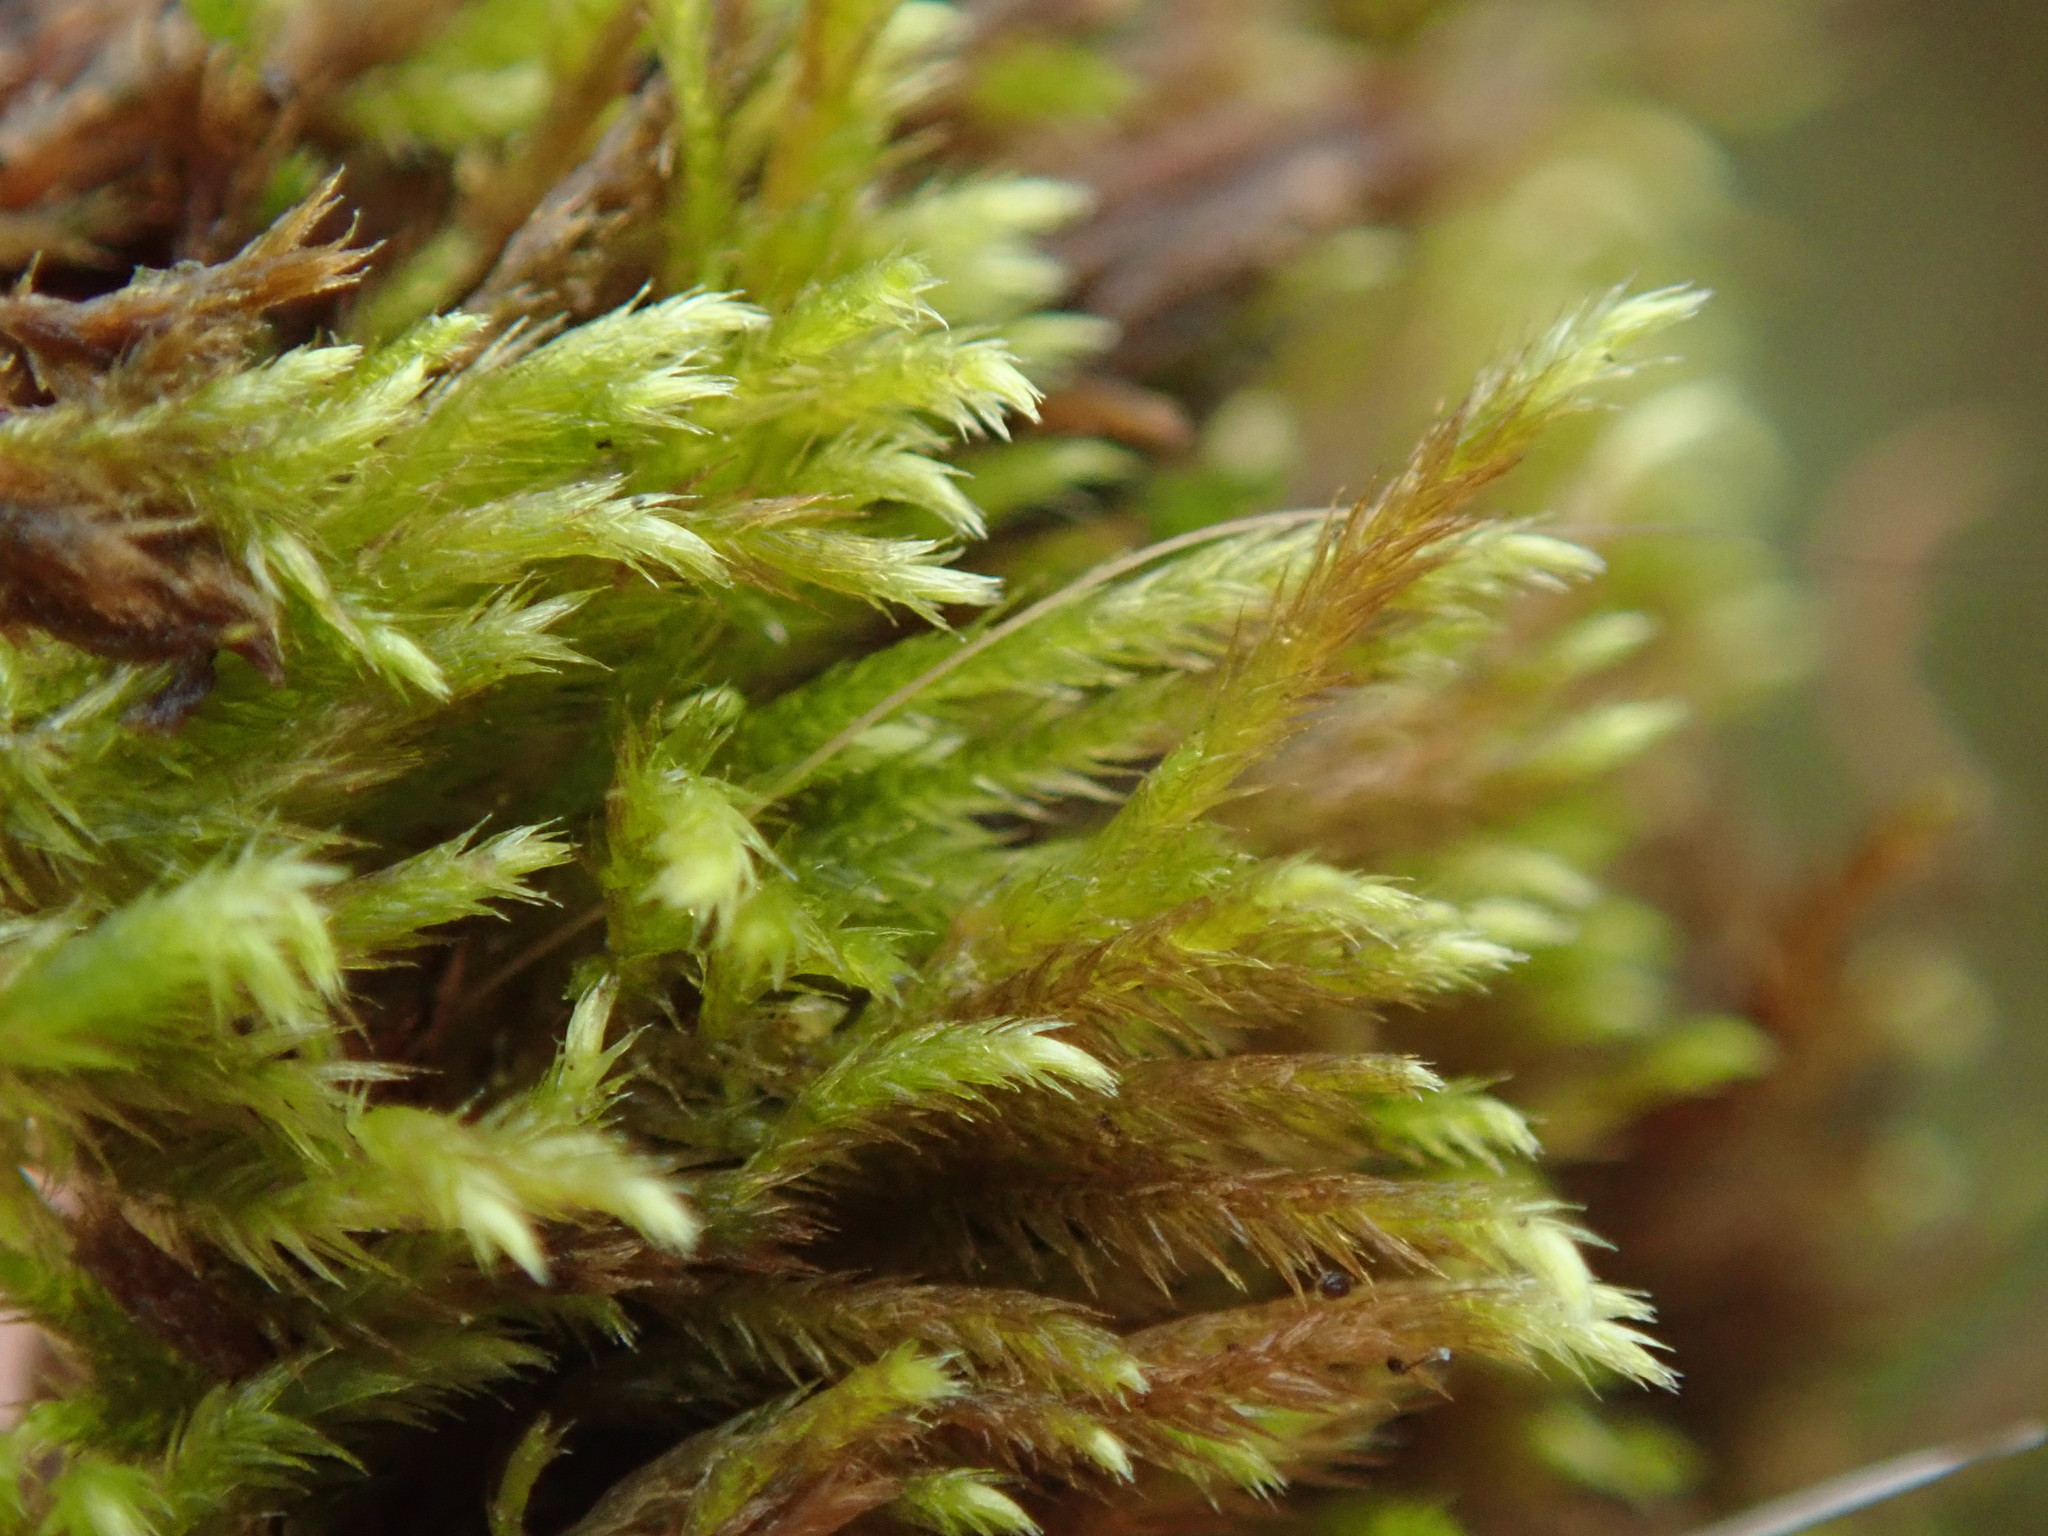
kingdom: Plantae
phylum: Bryophyta
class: Bryopsida
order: Hypnales
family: Brachytheciaceae
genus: Homalothecium
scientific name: Homalothecium nuttallii
